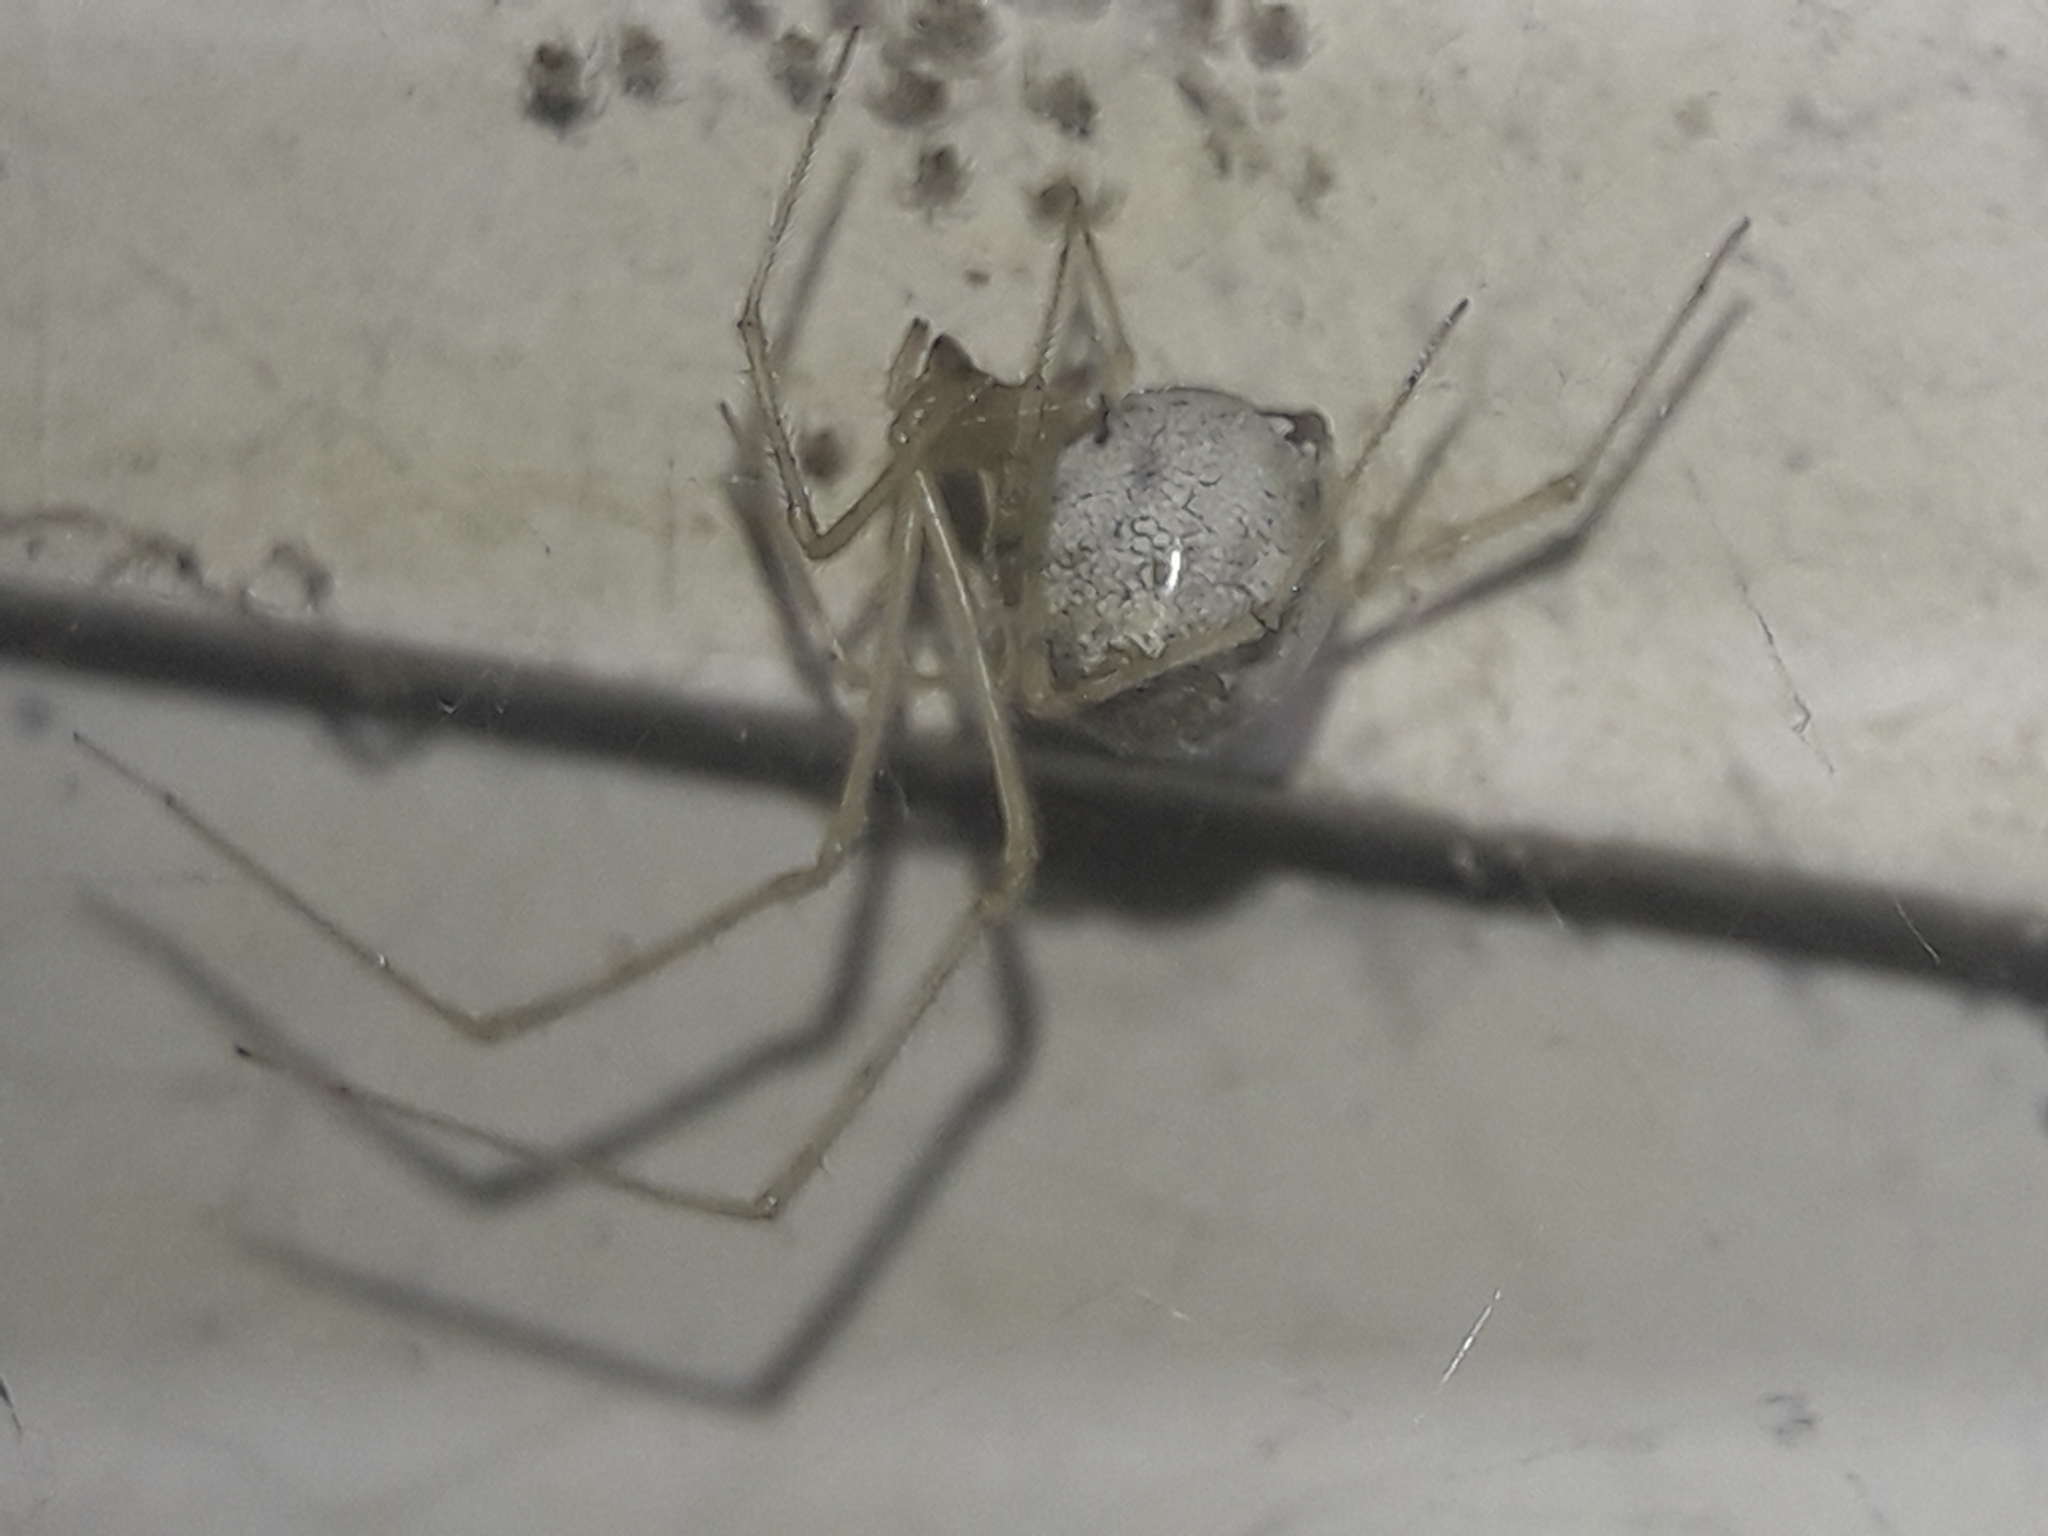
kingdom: Animalia
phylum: Arthropoda
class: Arachnida
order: Araneae
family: Theridiidae
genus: Cryptachaea
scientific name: Cryptachaea gigantipes
